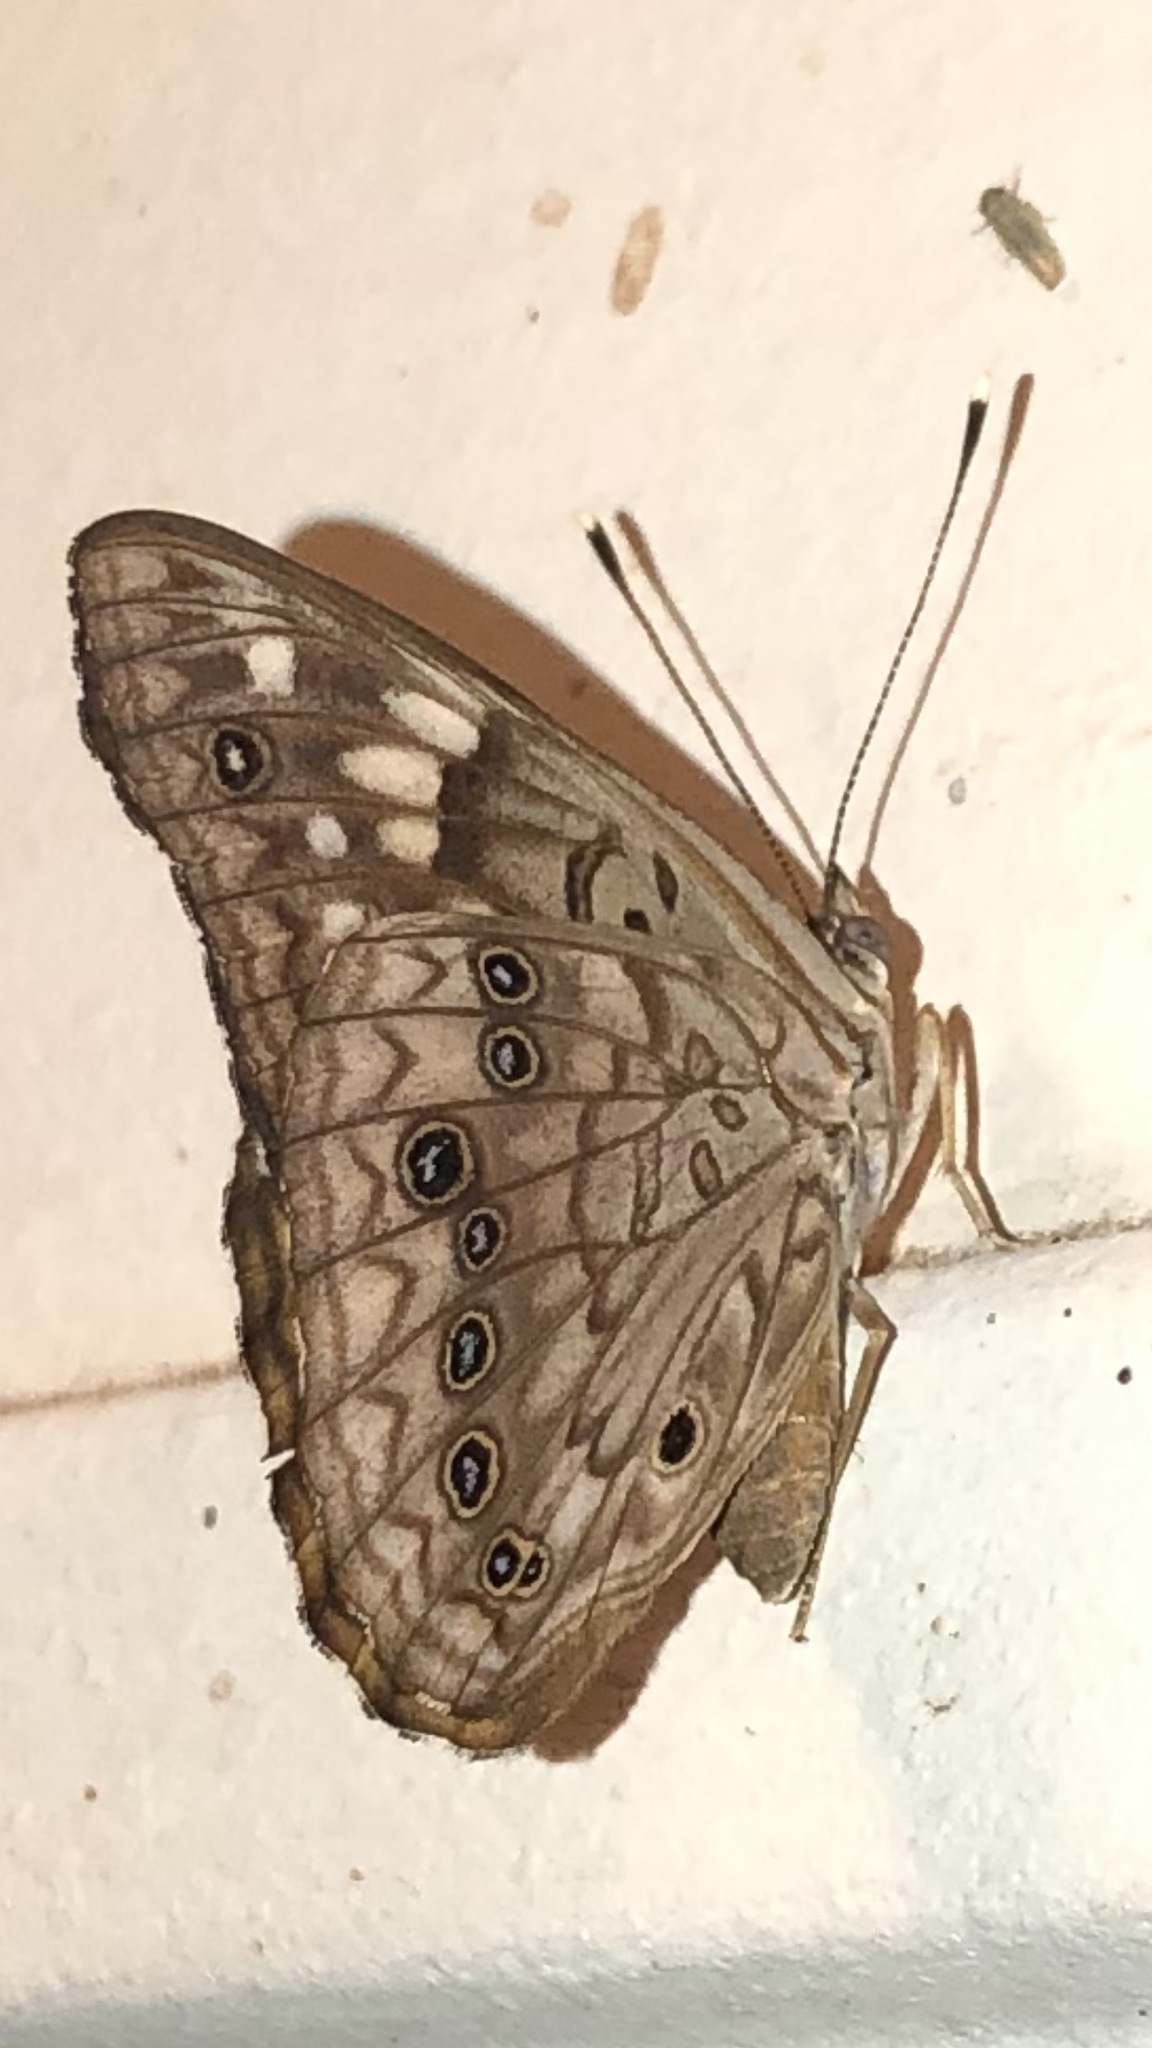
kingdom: Animalia
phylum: Arthropoda
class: Insecta
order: Lepidoptera
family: Nymphalidae
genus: Asterocampa
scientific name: Asterocampa celtis
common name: Hackberry emperor
